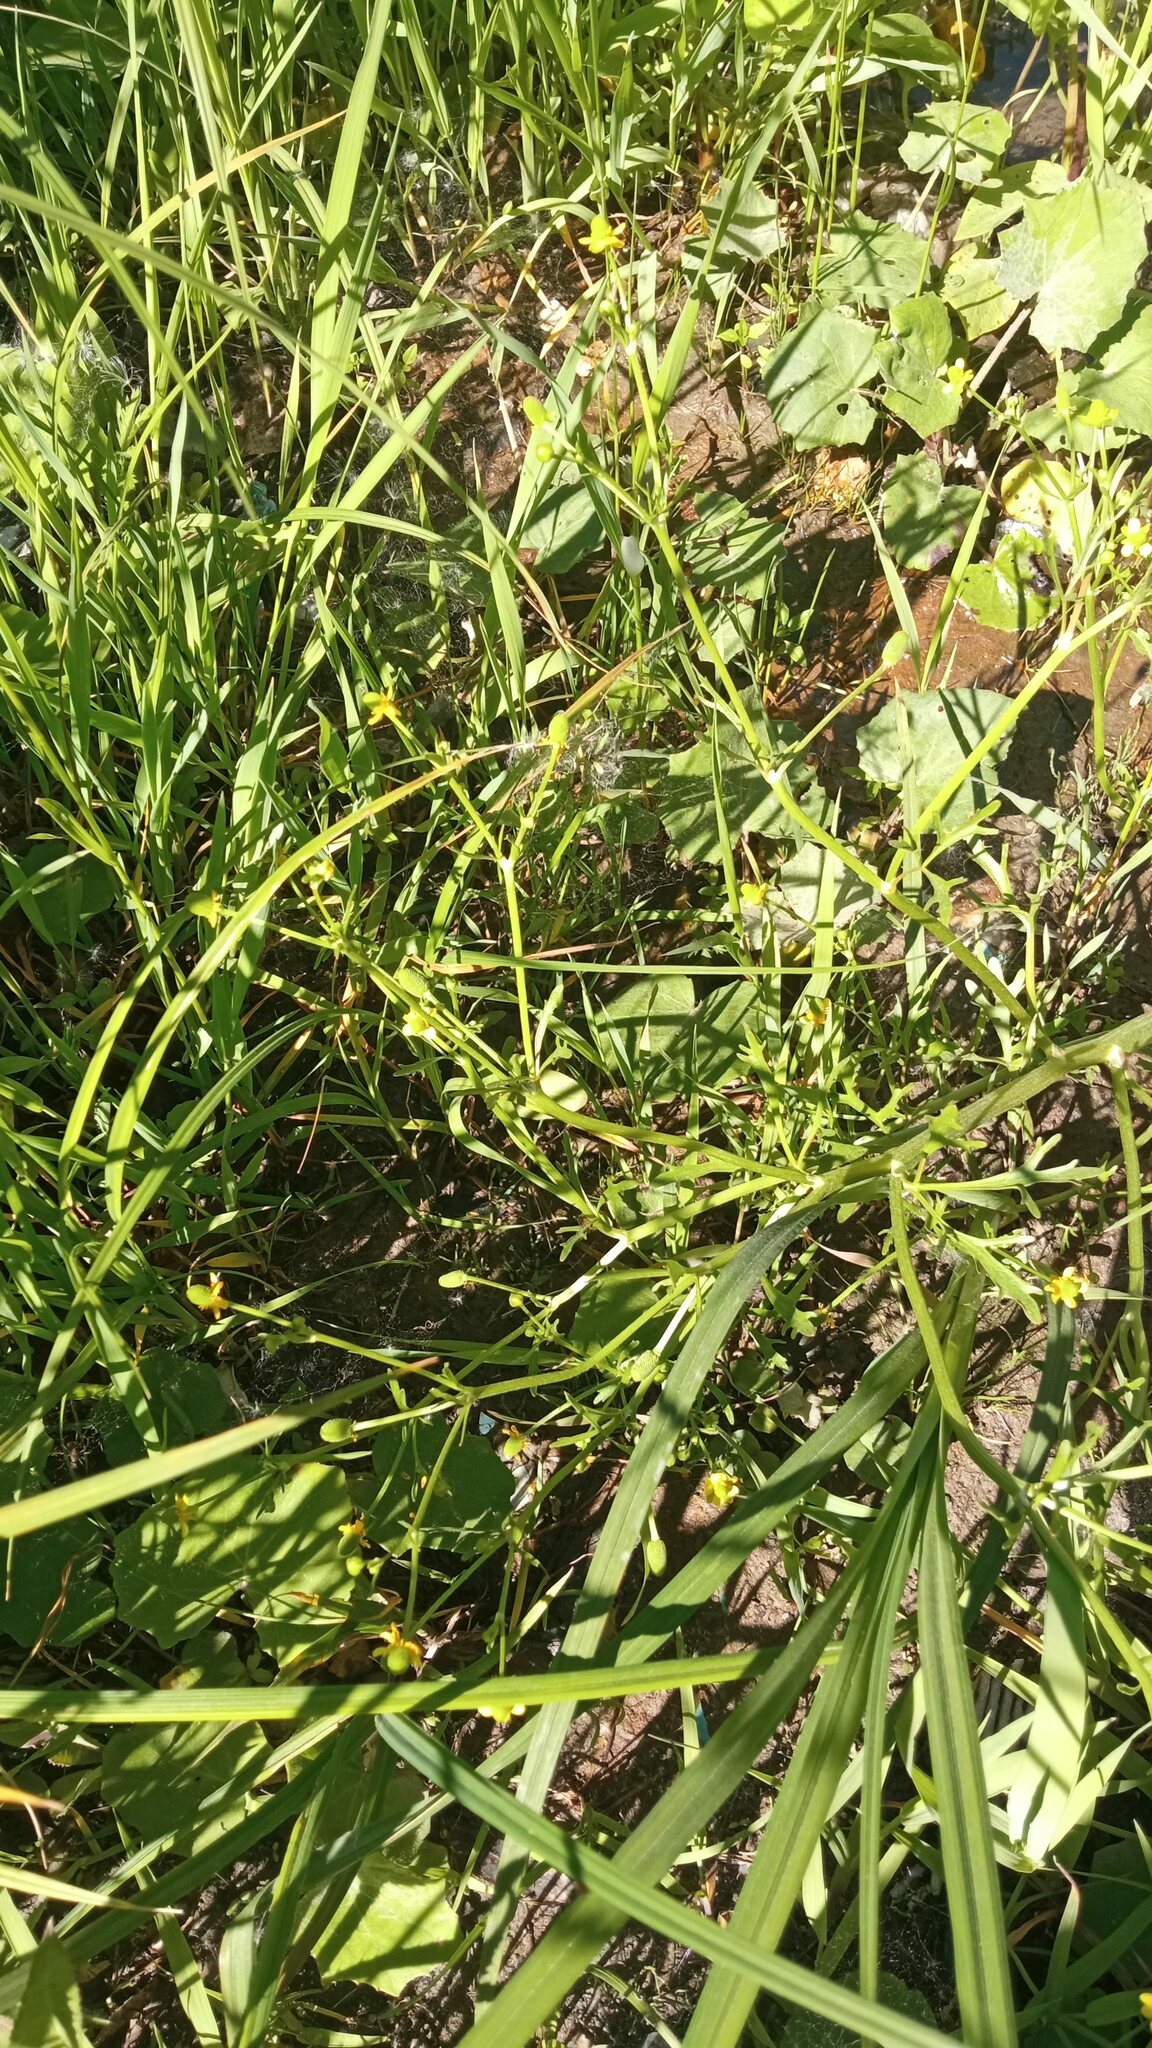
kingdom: Plantae
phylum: Tracheophyta
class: Magnoliopsida
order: Ranunculales
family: Ranunculaceae
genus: Ranunculus
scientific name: Ranunculus sceleratus
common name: Celery-leaved buttercup
